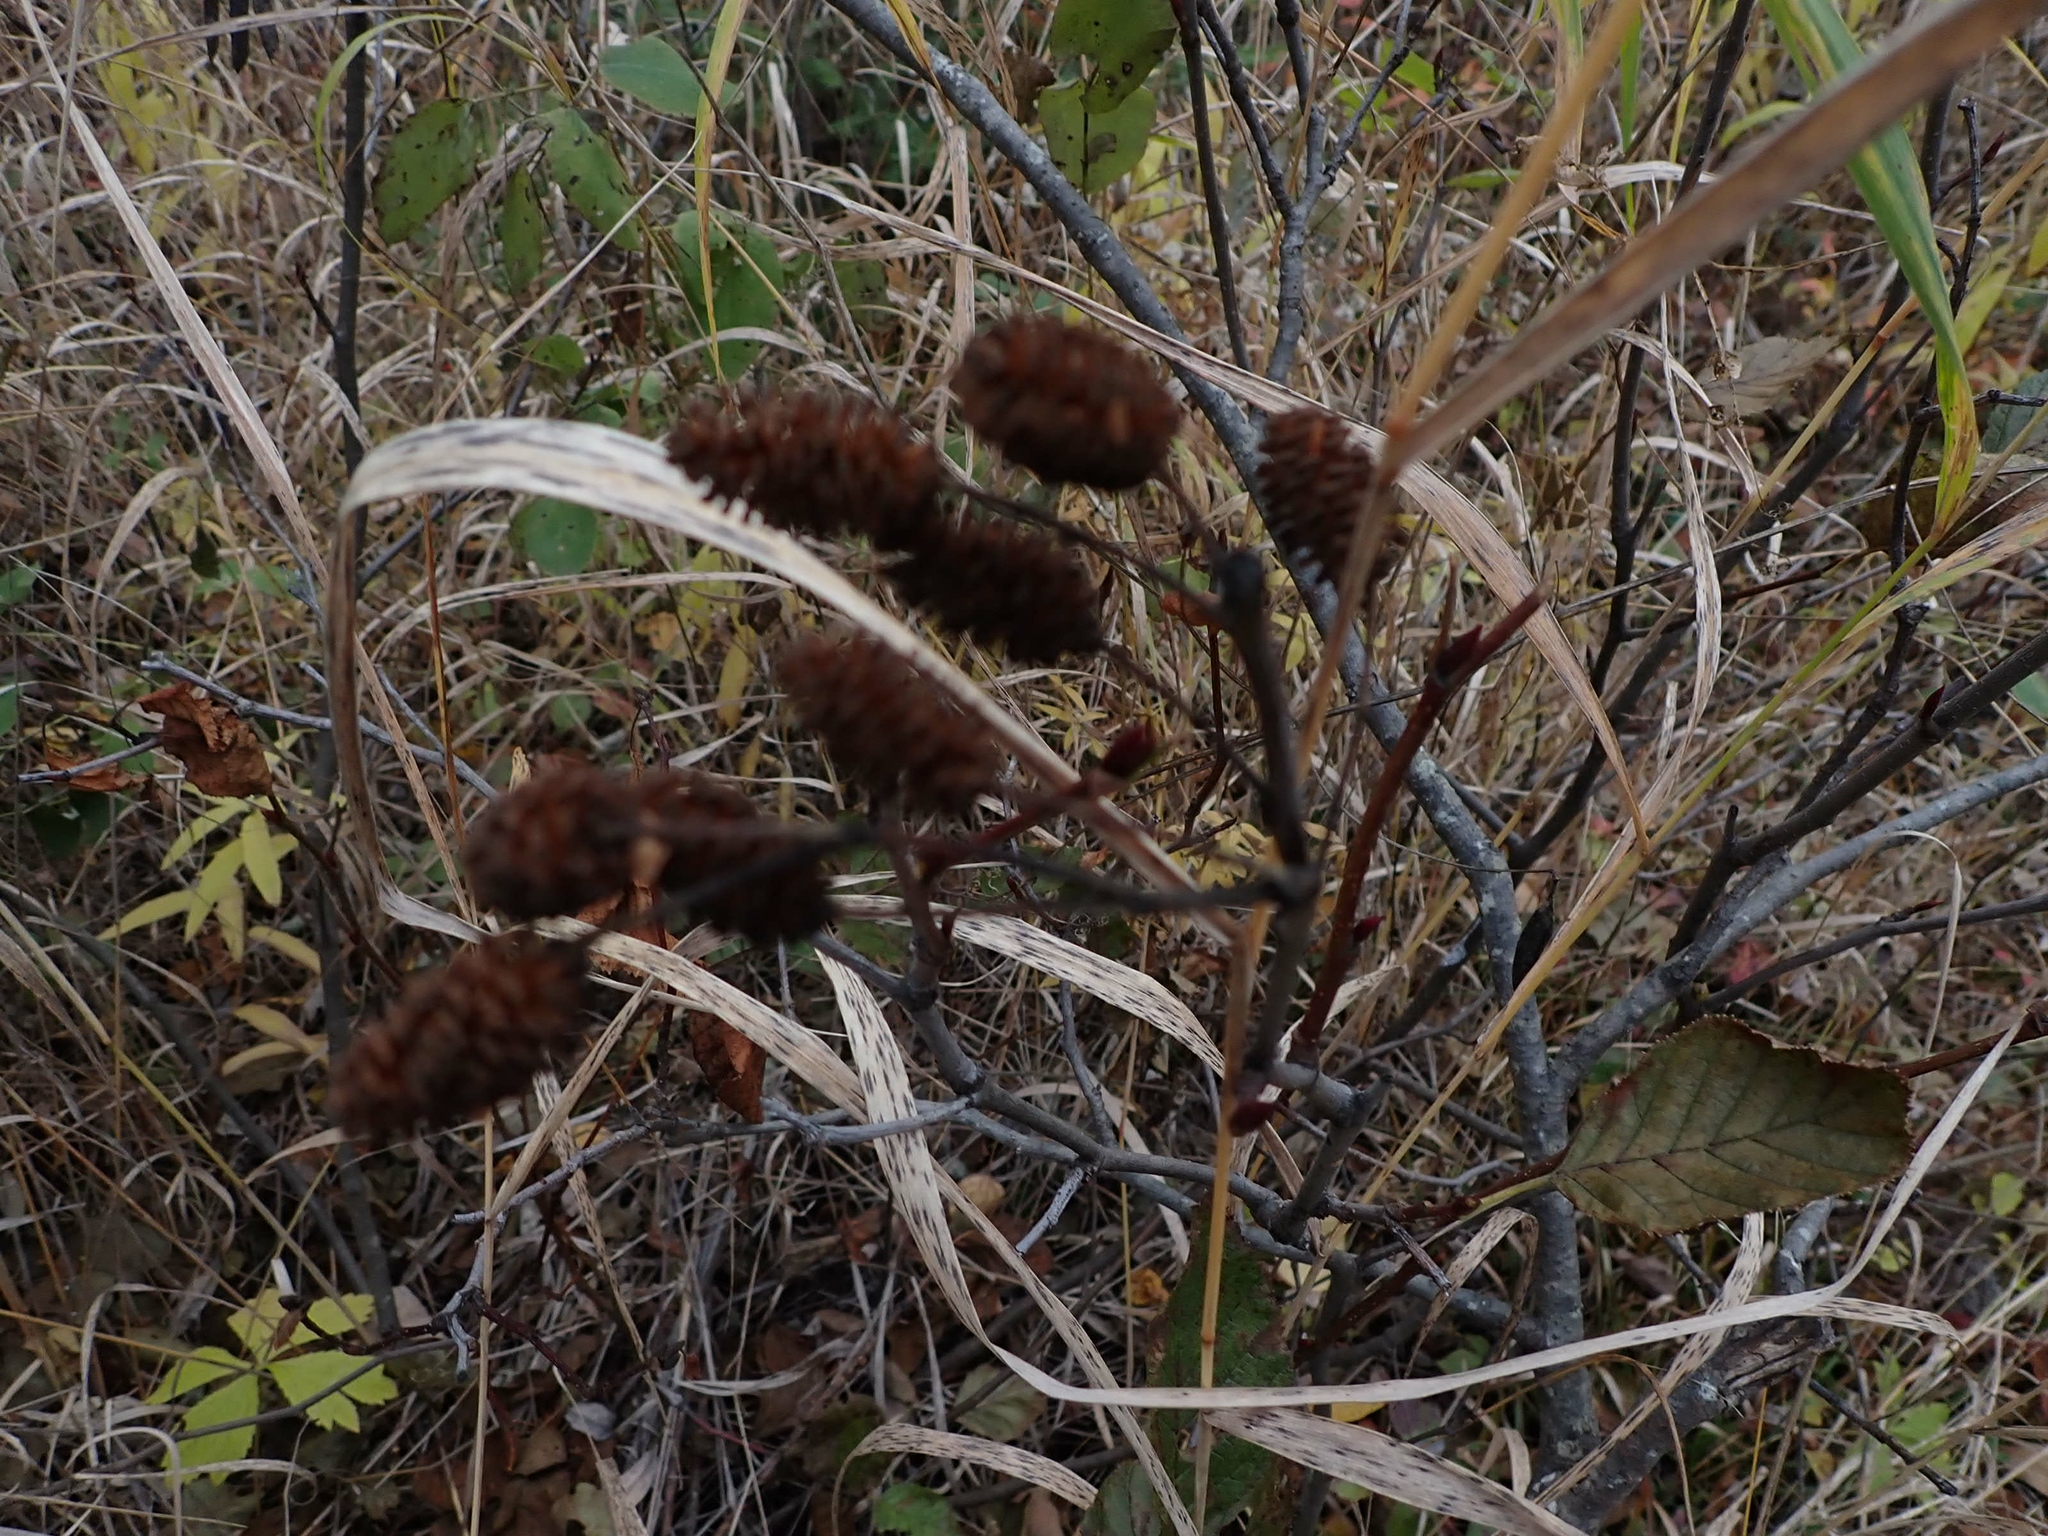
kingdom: Plantae
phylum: Tracheophyta
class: Magnoliopsida
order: Fagales
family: Betulaceae
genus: Alnus
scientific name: Alnus incana
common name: Grey alder
